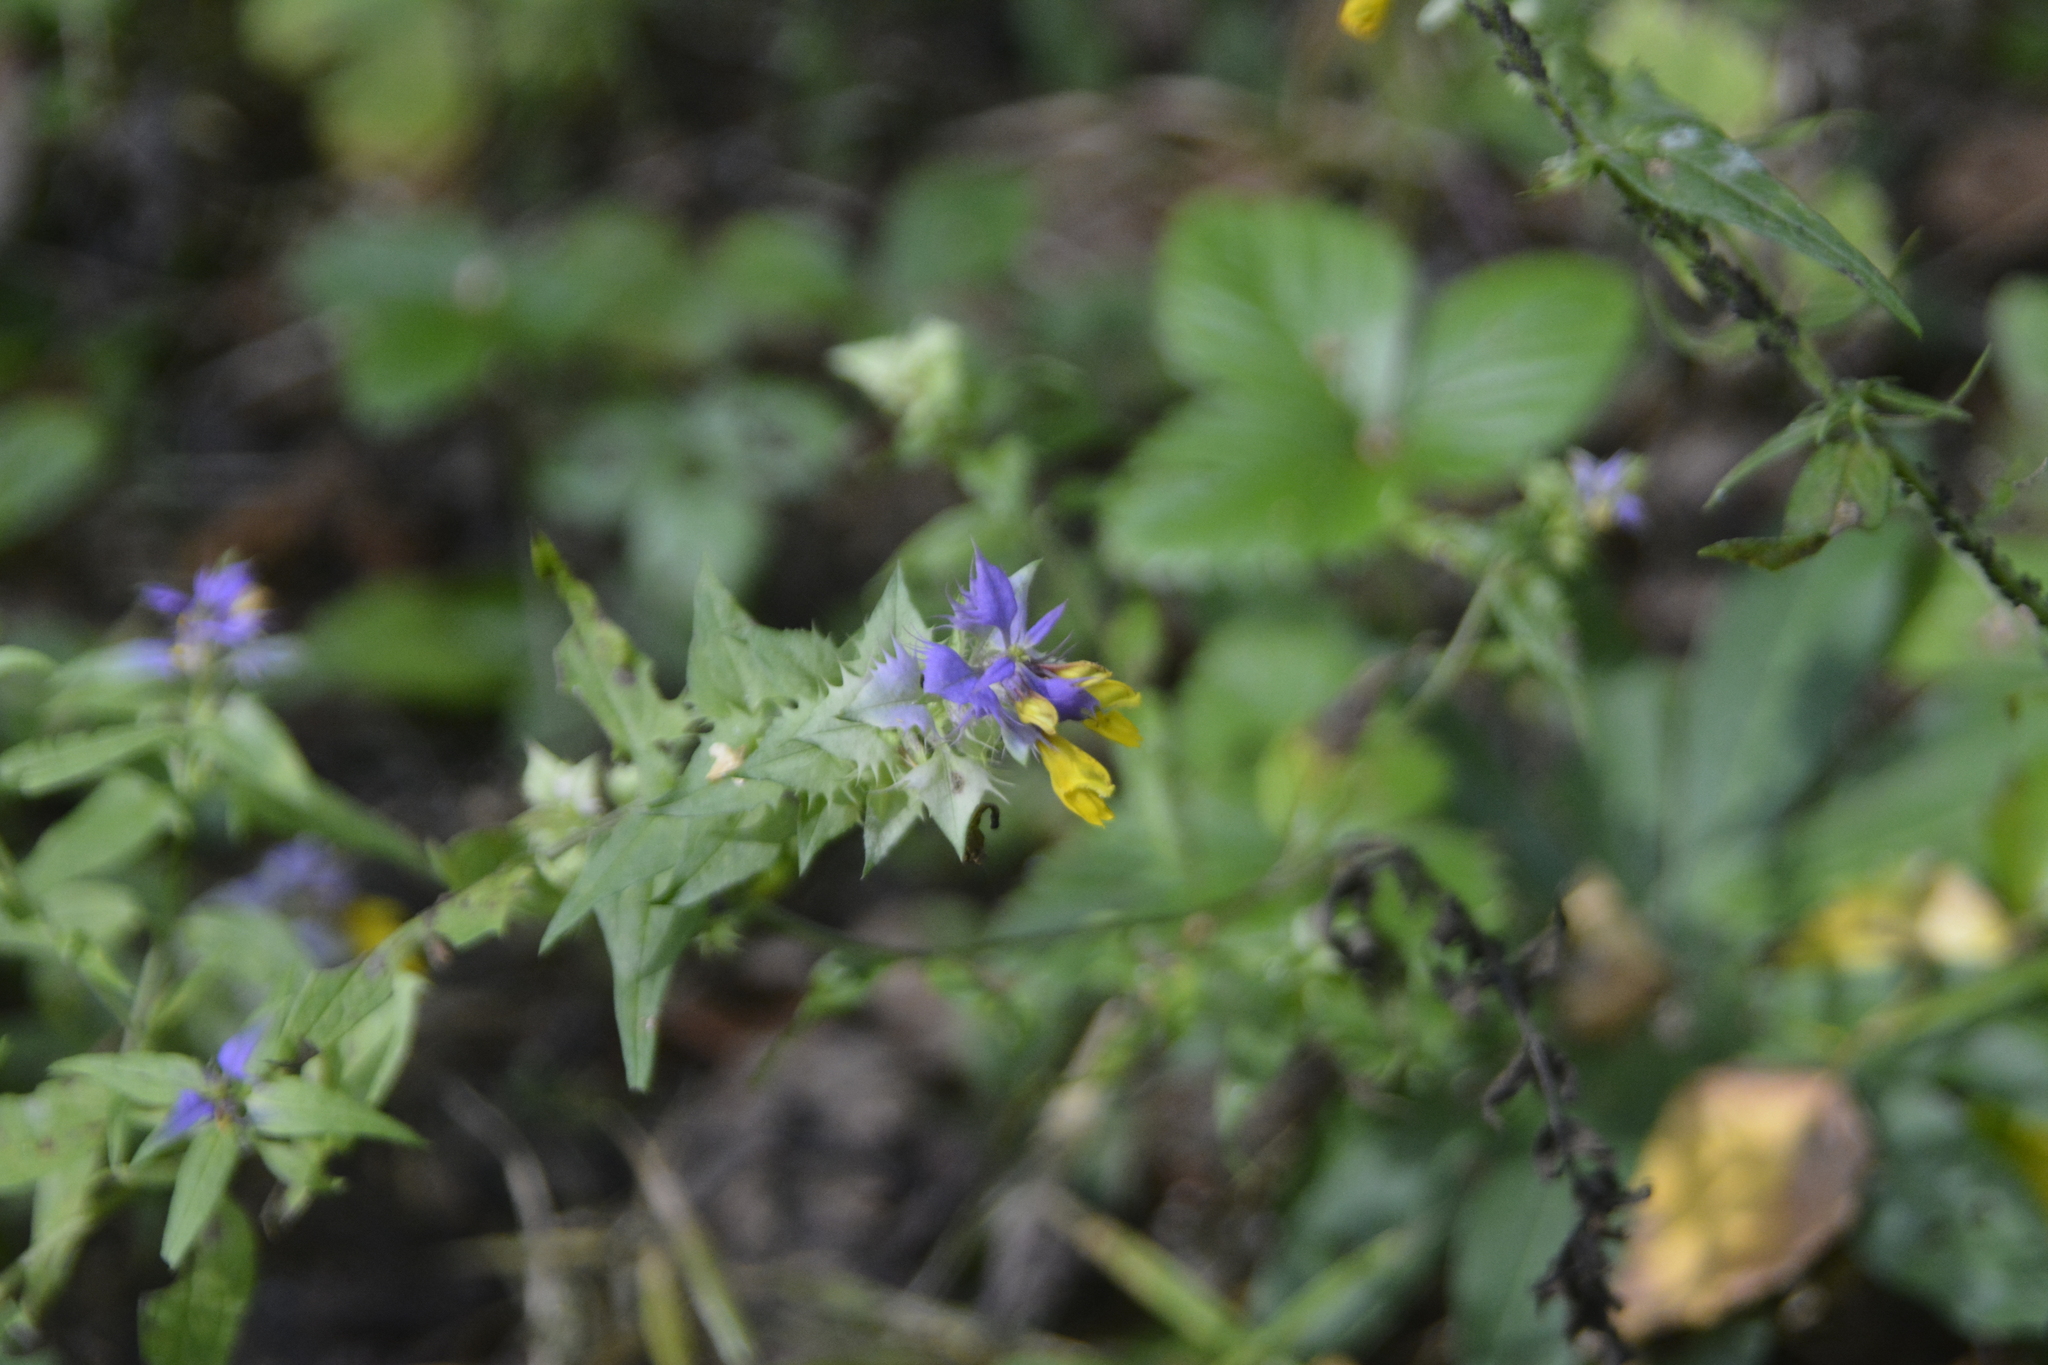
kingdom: Plantae
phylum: Tracheophyta
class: Magnoliopsida
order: Lamiales
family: Orobanchaceae
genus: Melampyrum
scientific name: Melampyrum nemorosum
